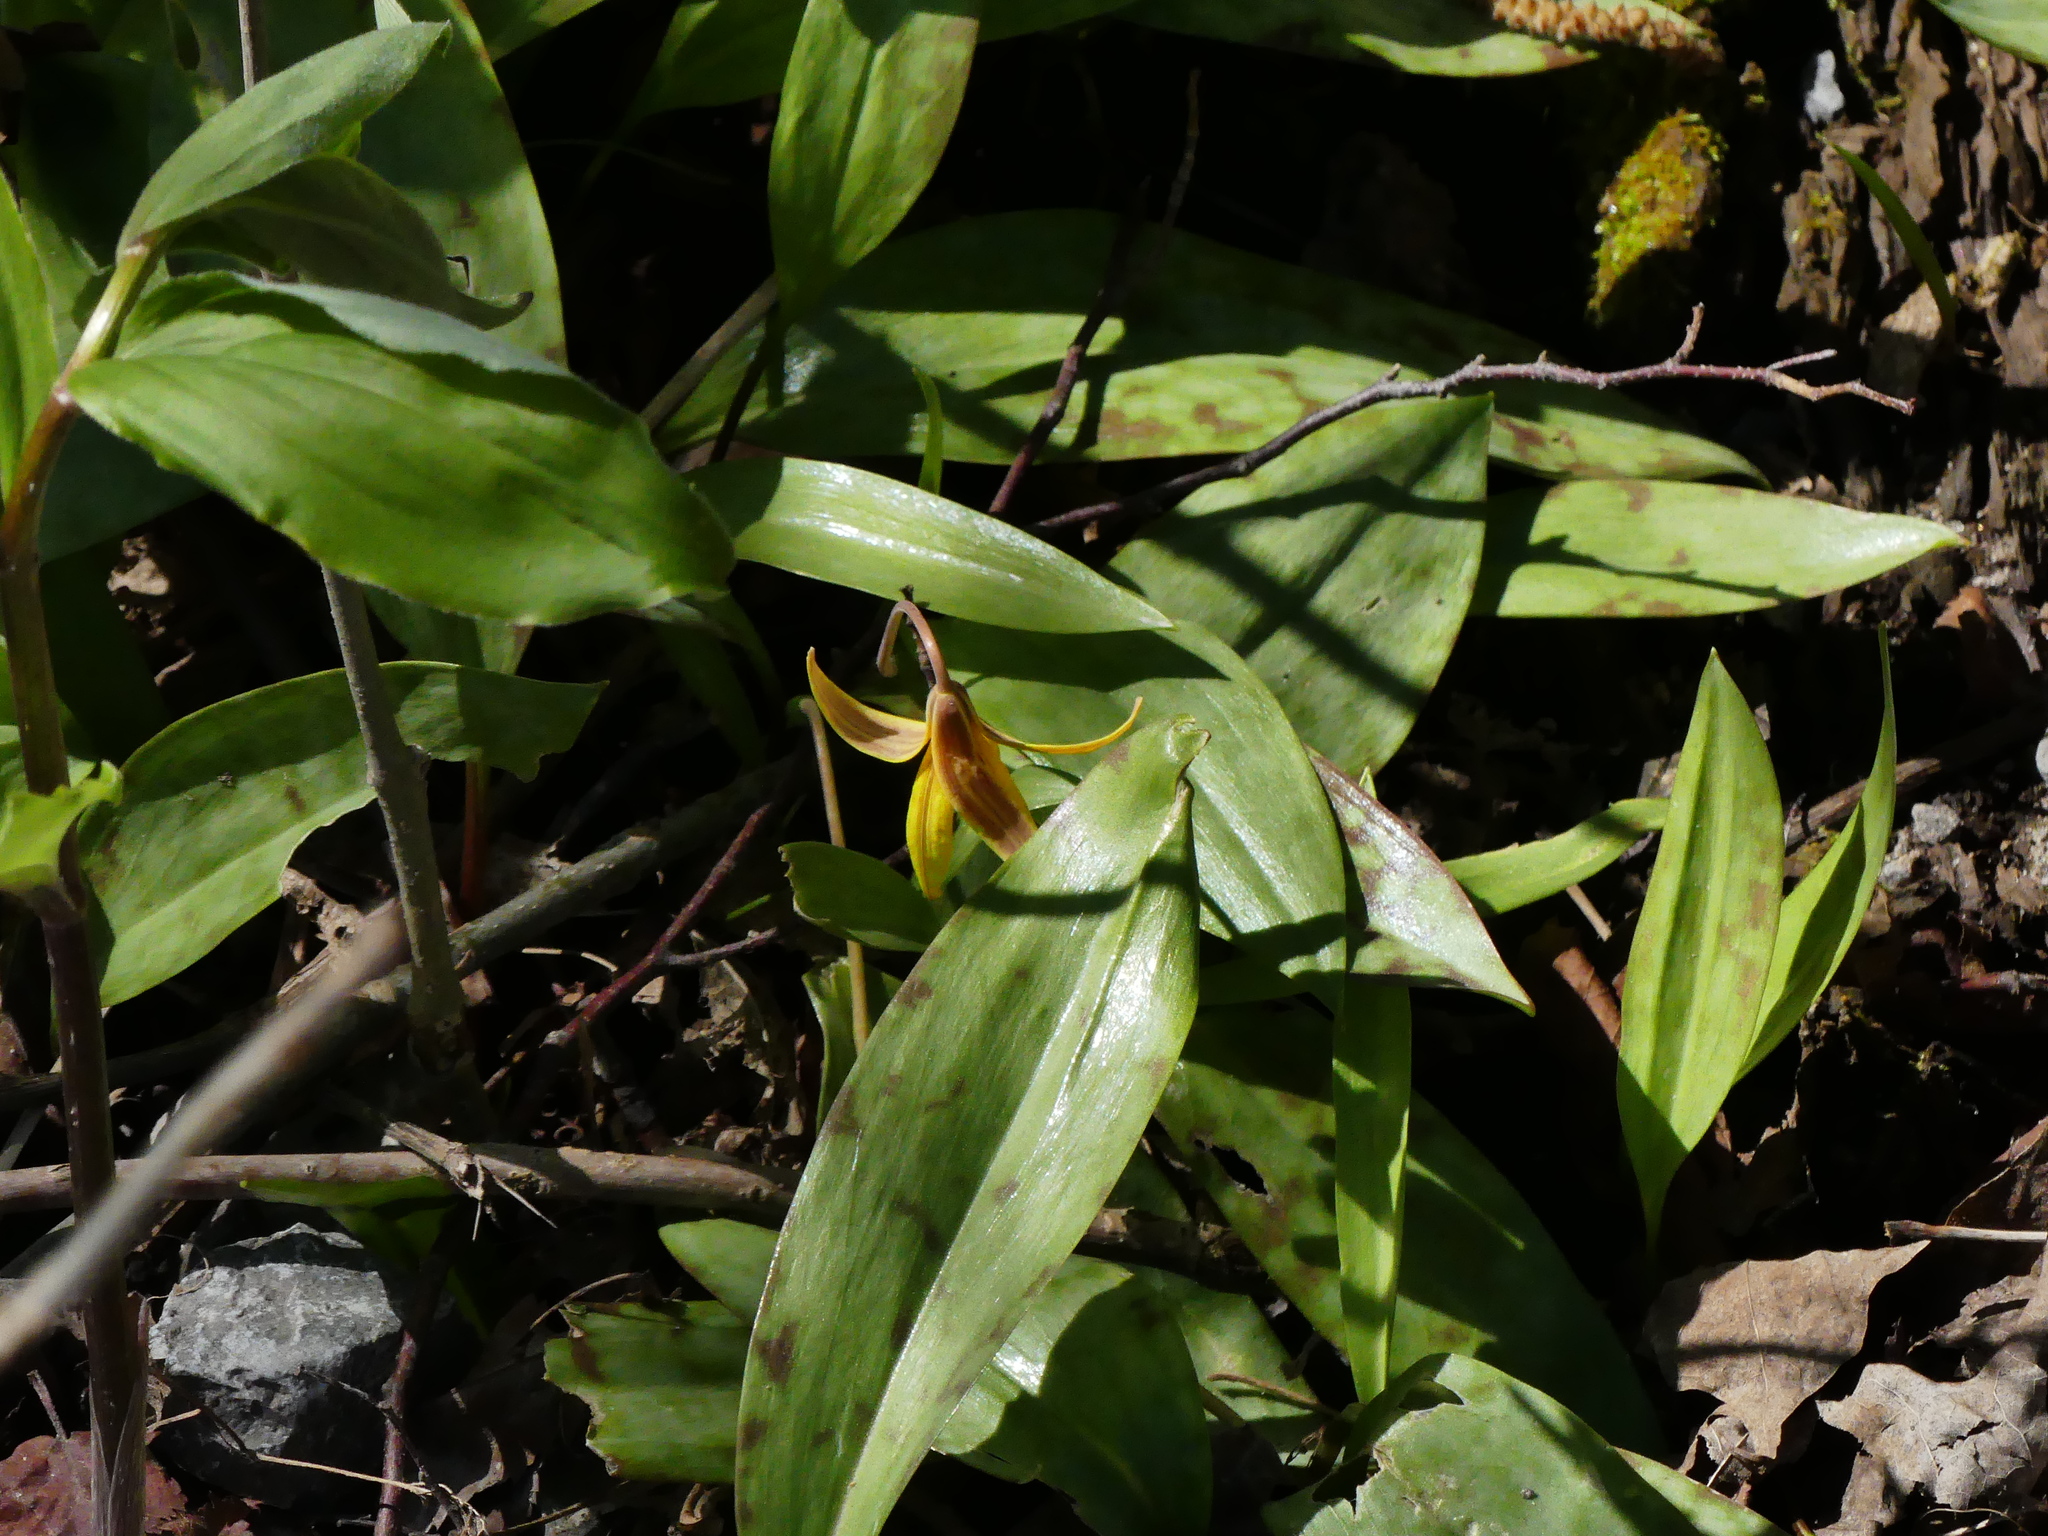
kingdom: Plantae
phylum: Tracheophyta
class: Liliopsida
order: Liliales
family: Liliaceae
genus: Erythronium
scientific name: Erythronium americanum
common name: Yellow adder's-tongue
